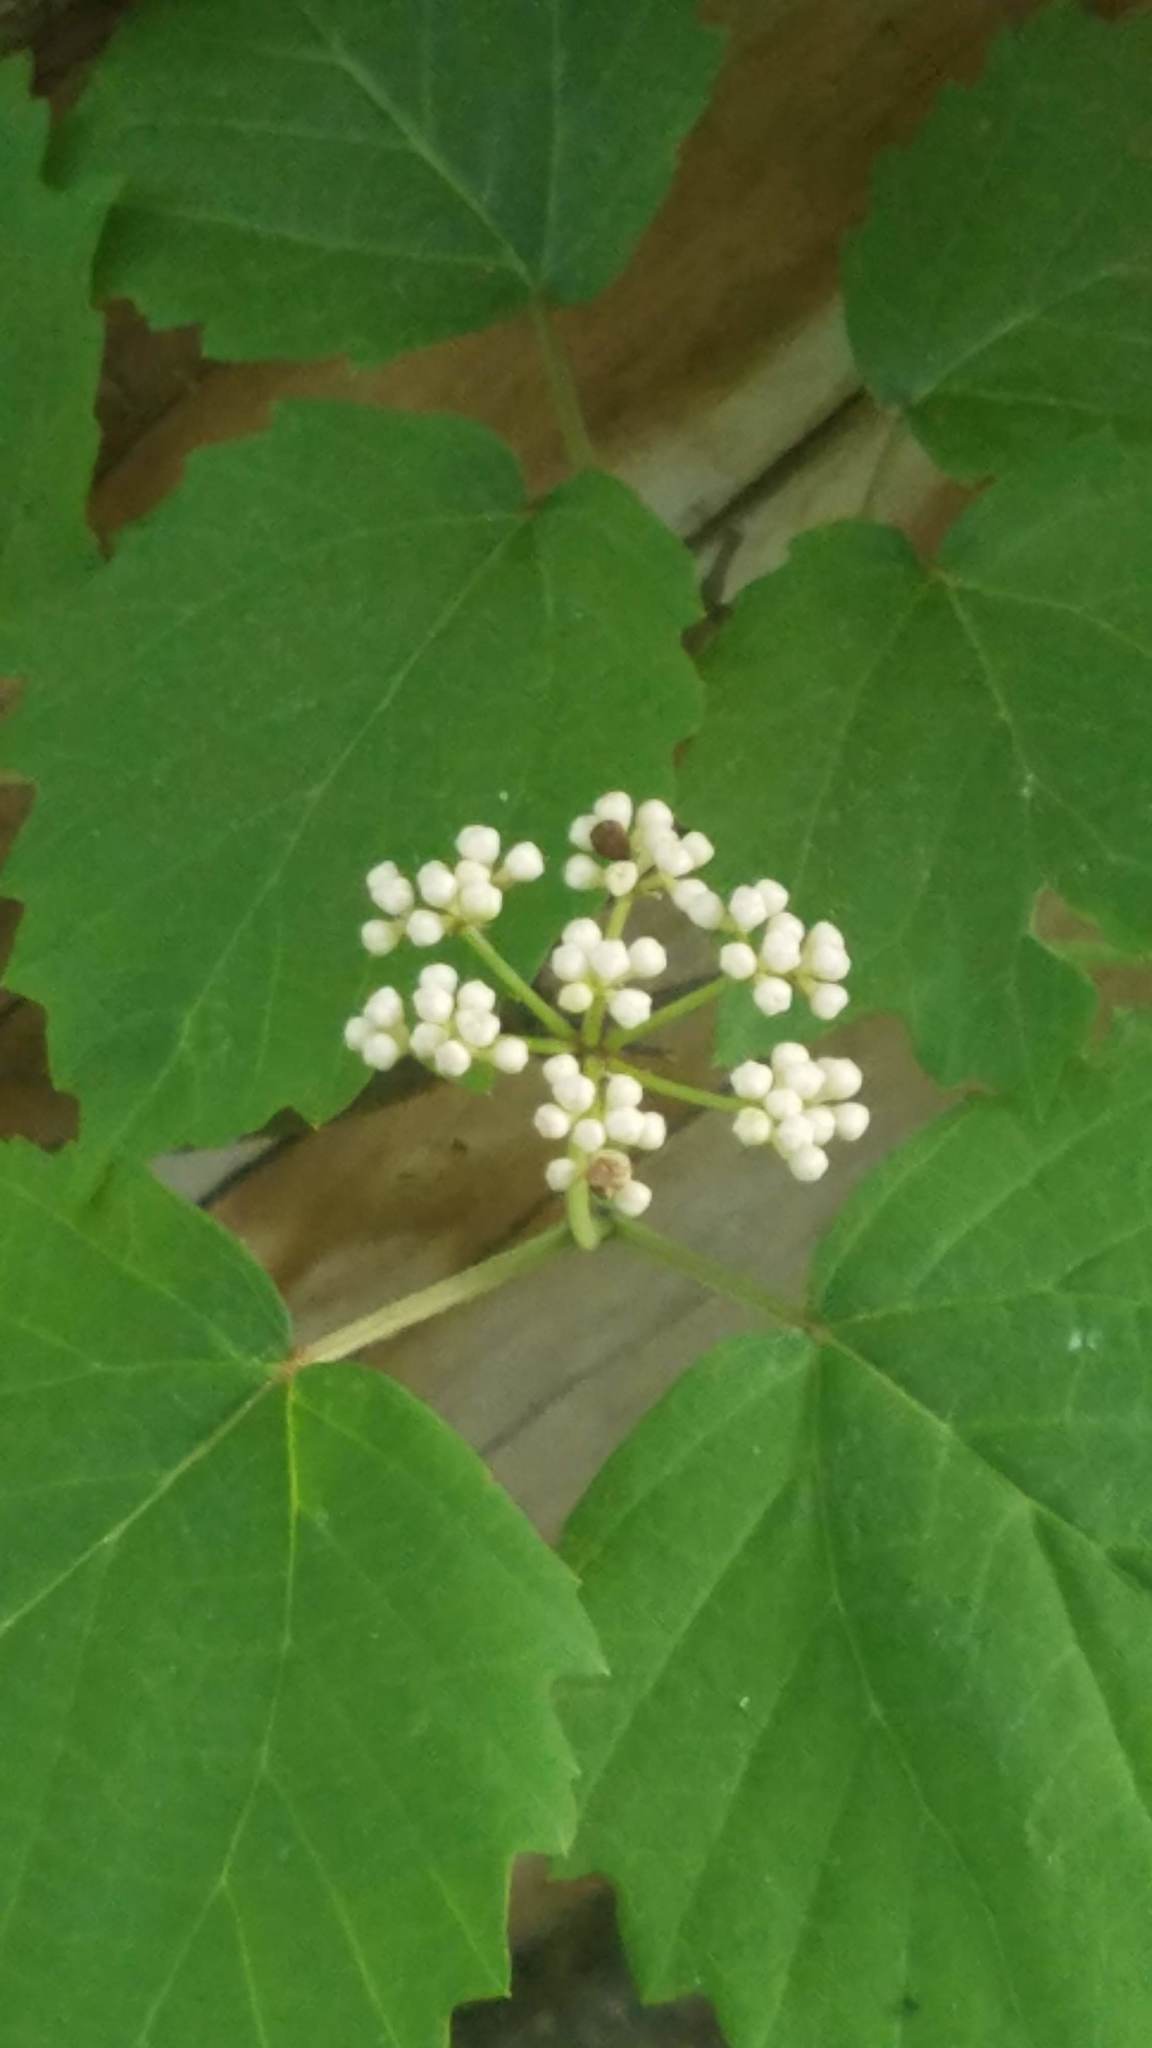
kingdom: Plantae
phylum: Tracheophyta
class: Magnoliopsida
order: Dipsacales
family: Viburnaceae
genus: Viburnum
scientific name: Viburnum acerifolium
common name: Dockmackie
